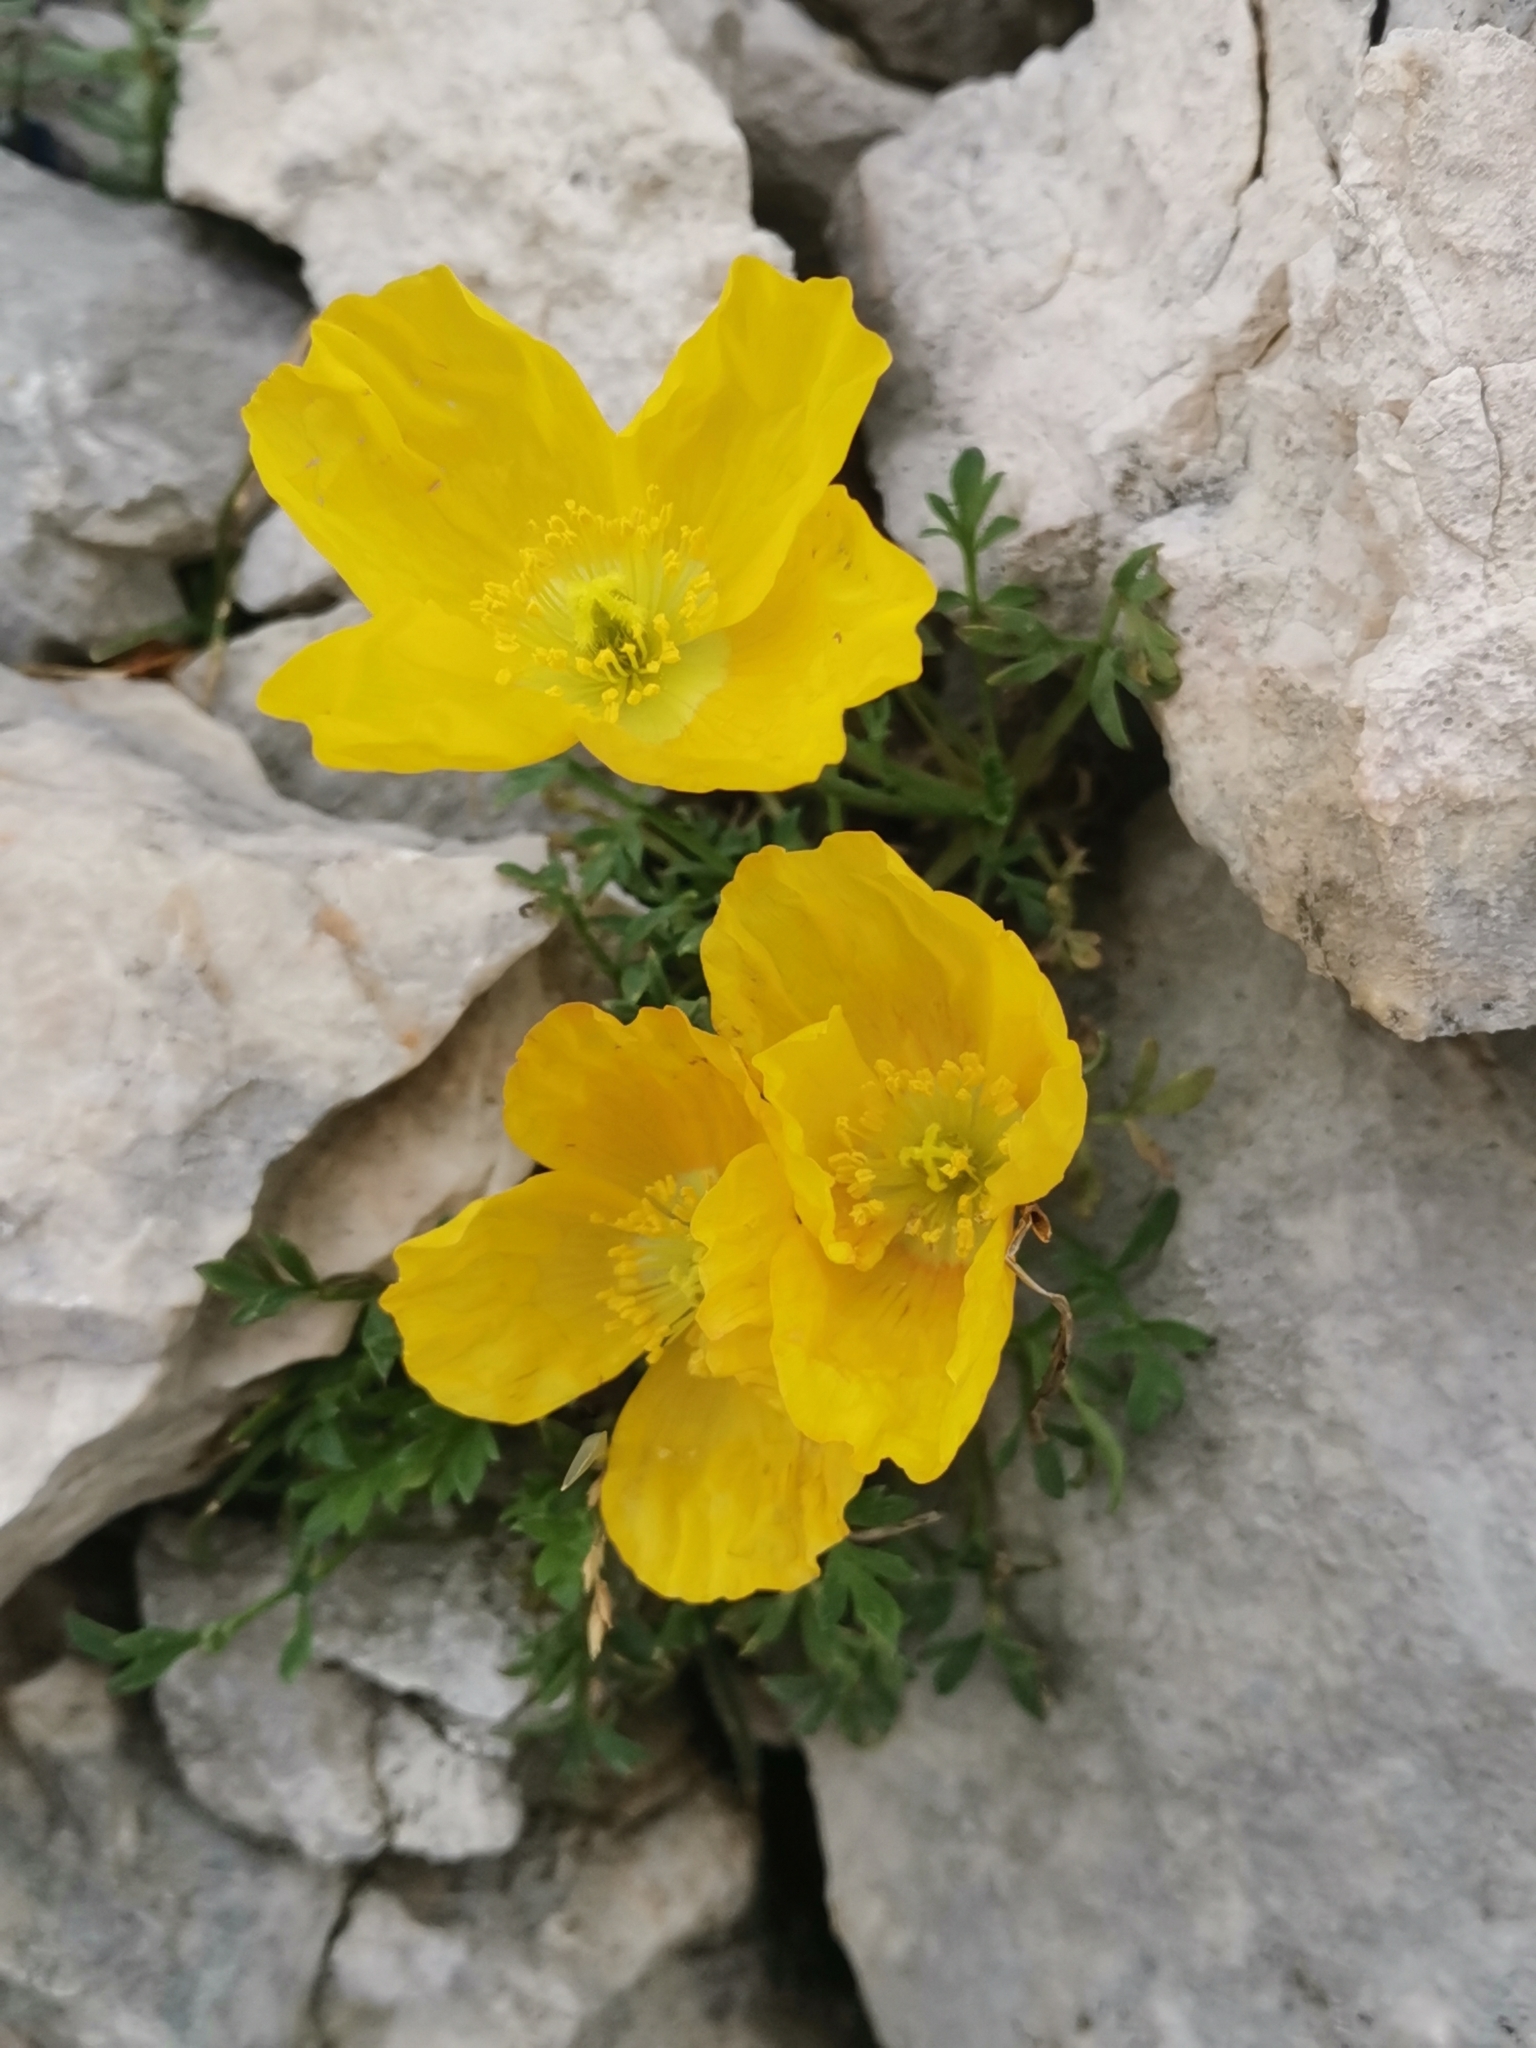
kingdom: Plantae
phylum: Tracheophyta
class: Magnoliopsida
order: Ranunculales
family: Papaveraceae
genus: Papaver
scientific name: Papaver alpinum
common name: Austrian poppy
